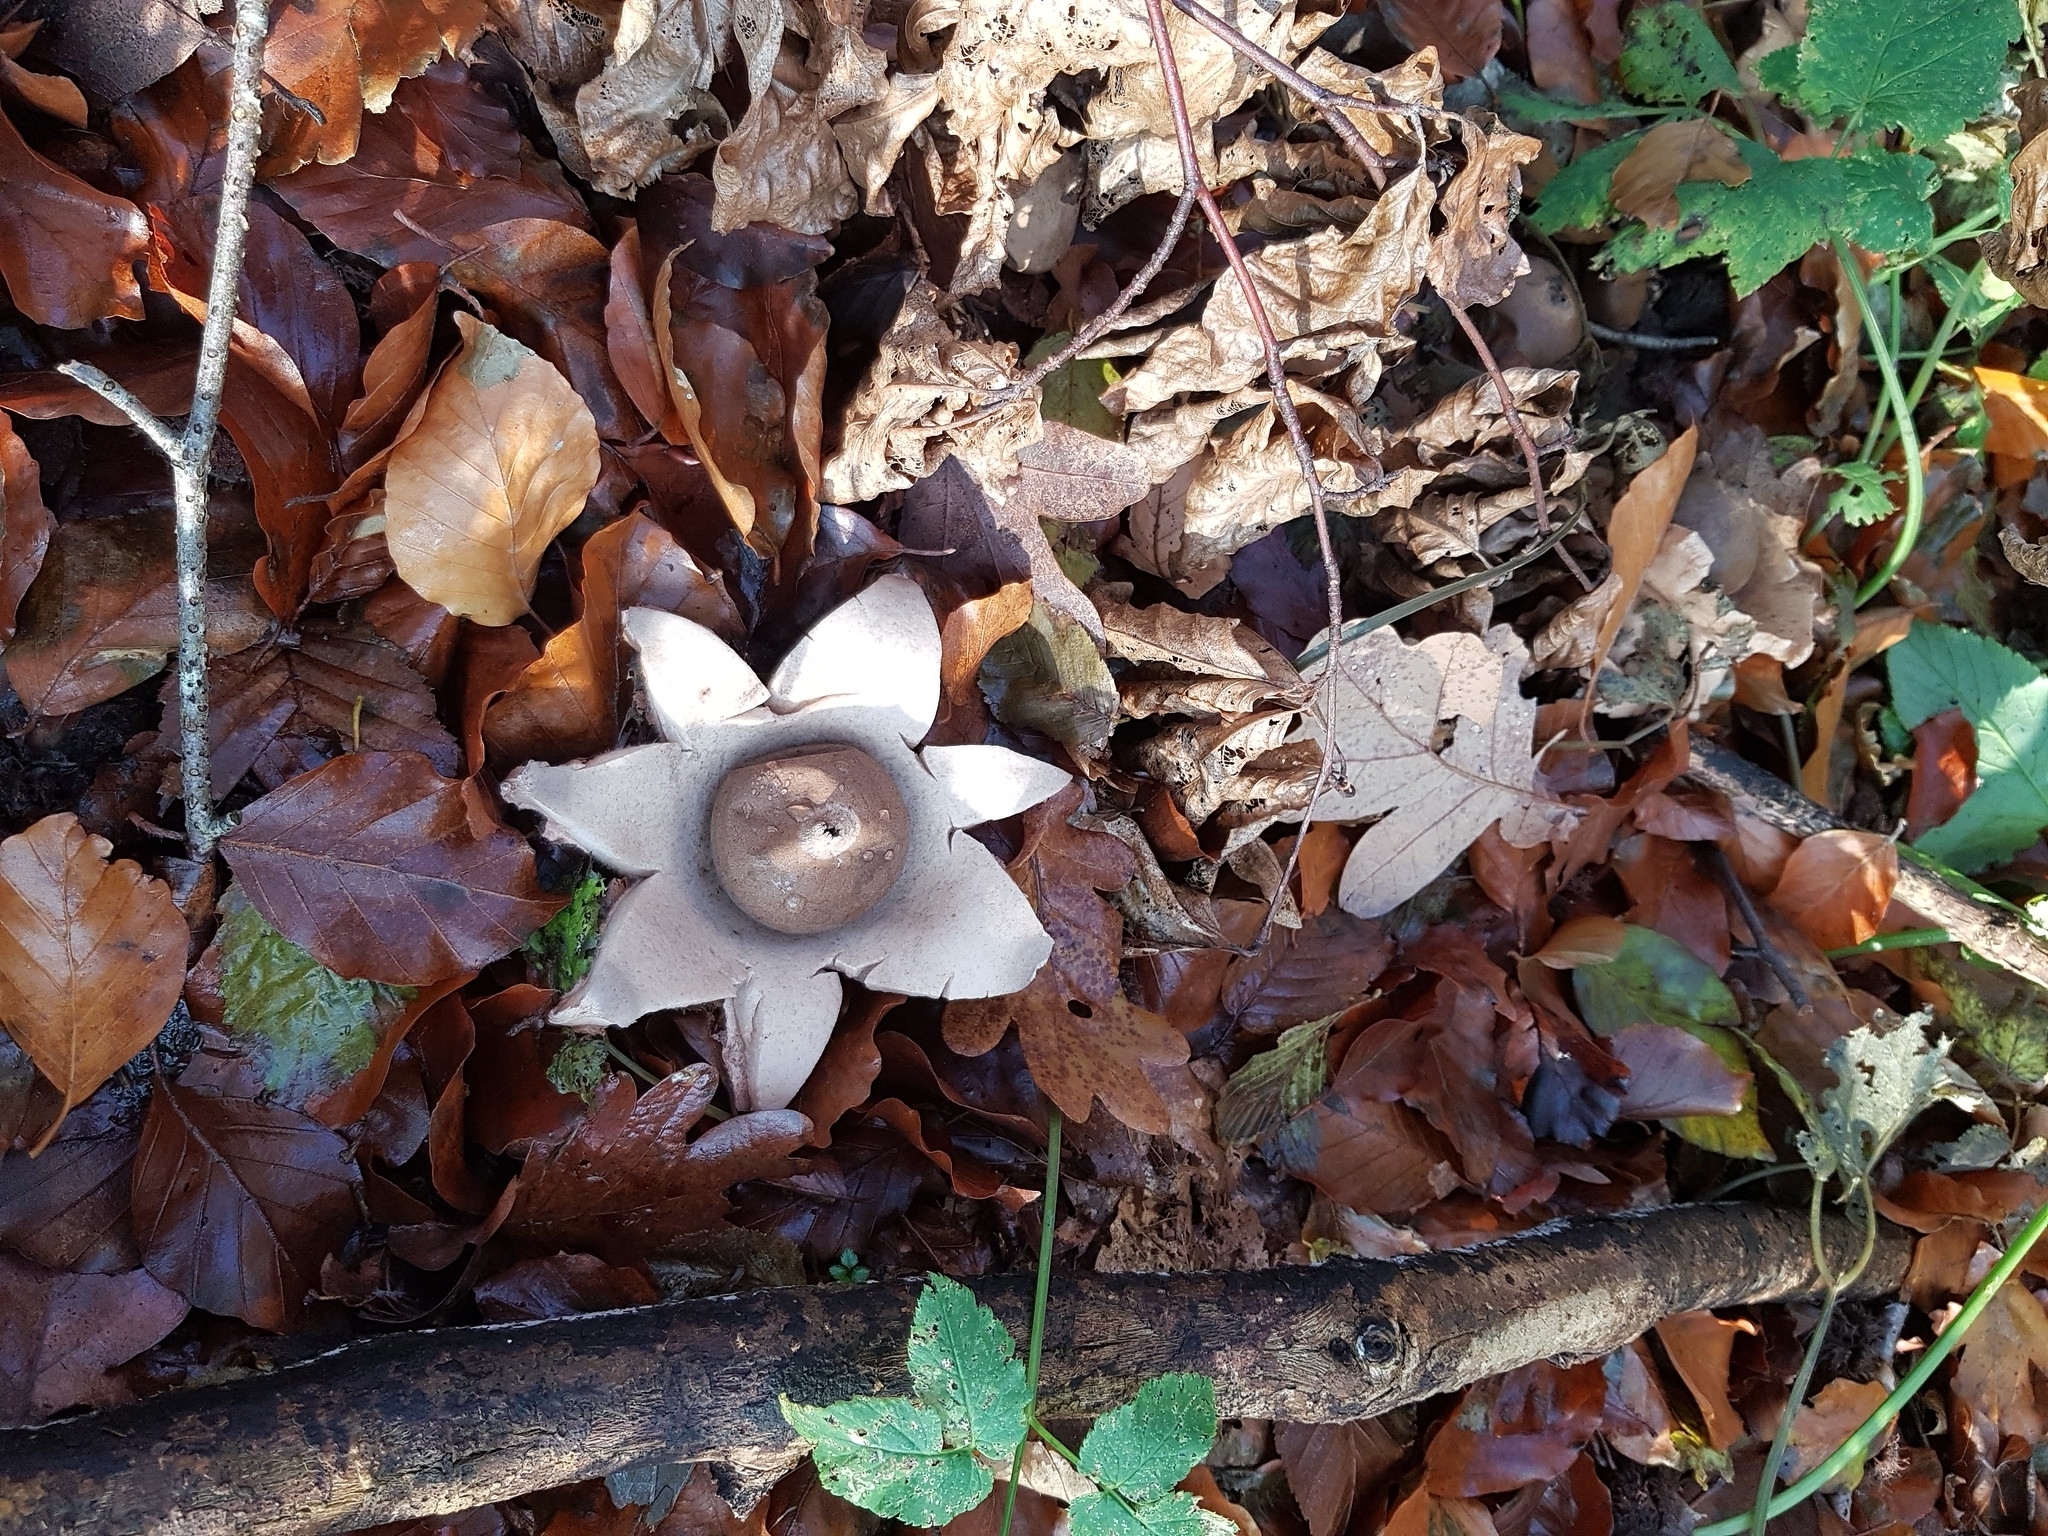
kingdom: Fungi
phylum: Basidiomycota
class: Agaricomycetes
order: Geastrales
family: Geastraceae
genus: Geastrum
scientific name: Geastrum fimbriatum
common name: Sessile earthstar
